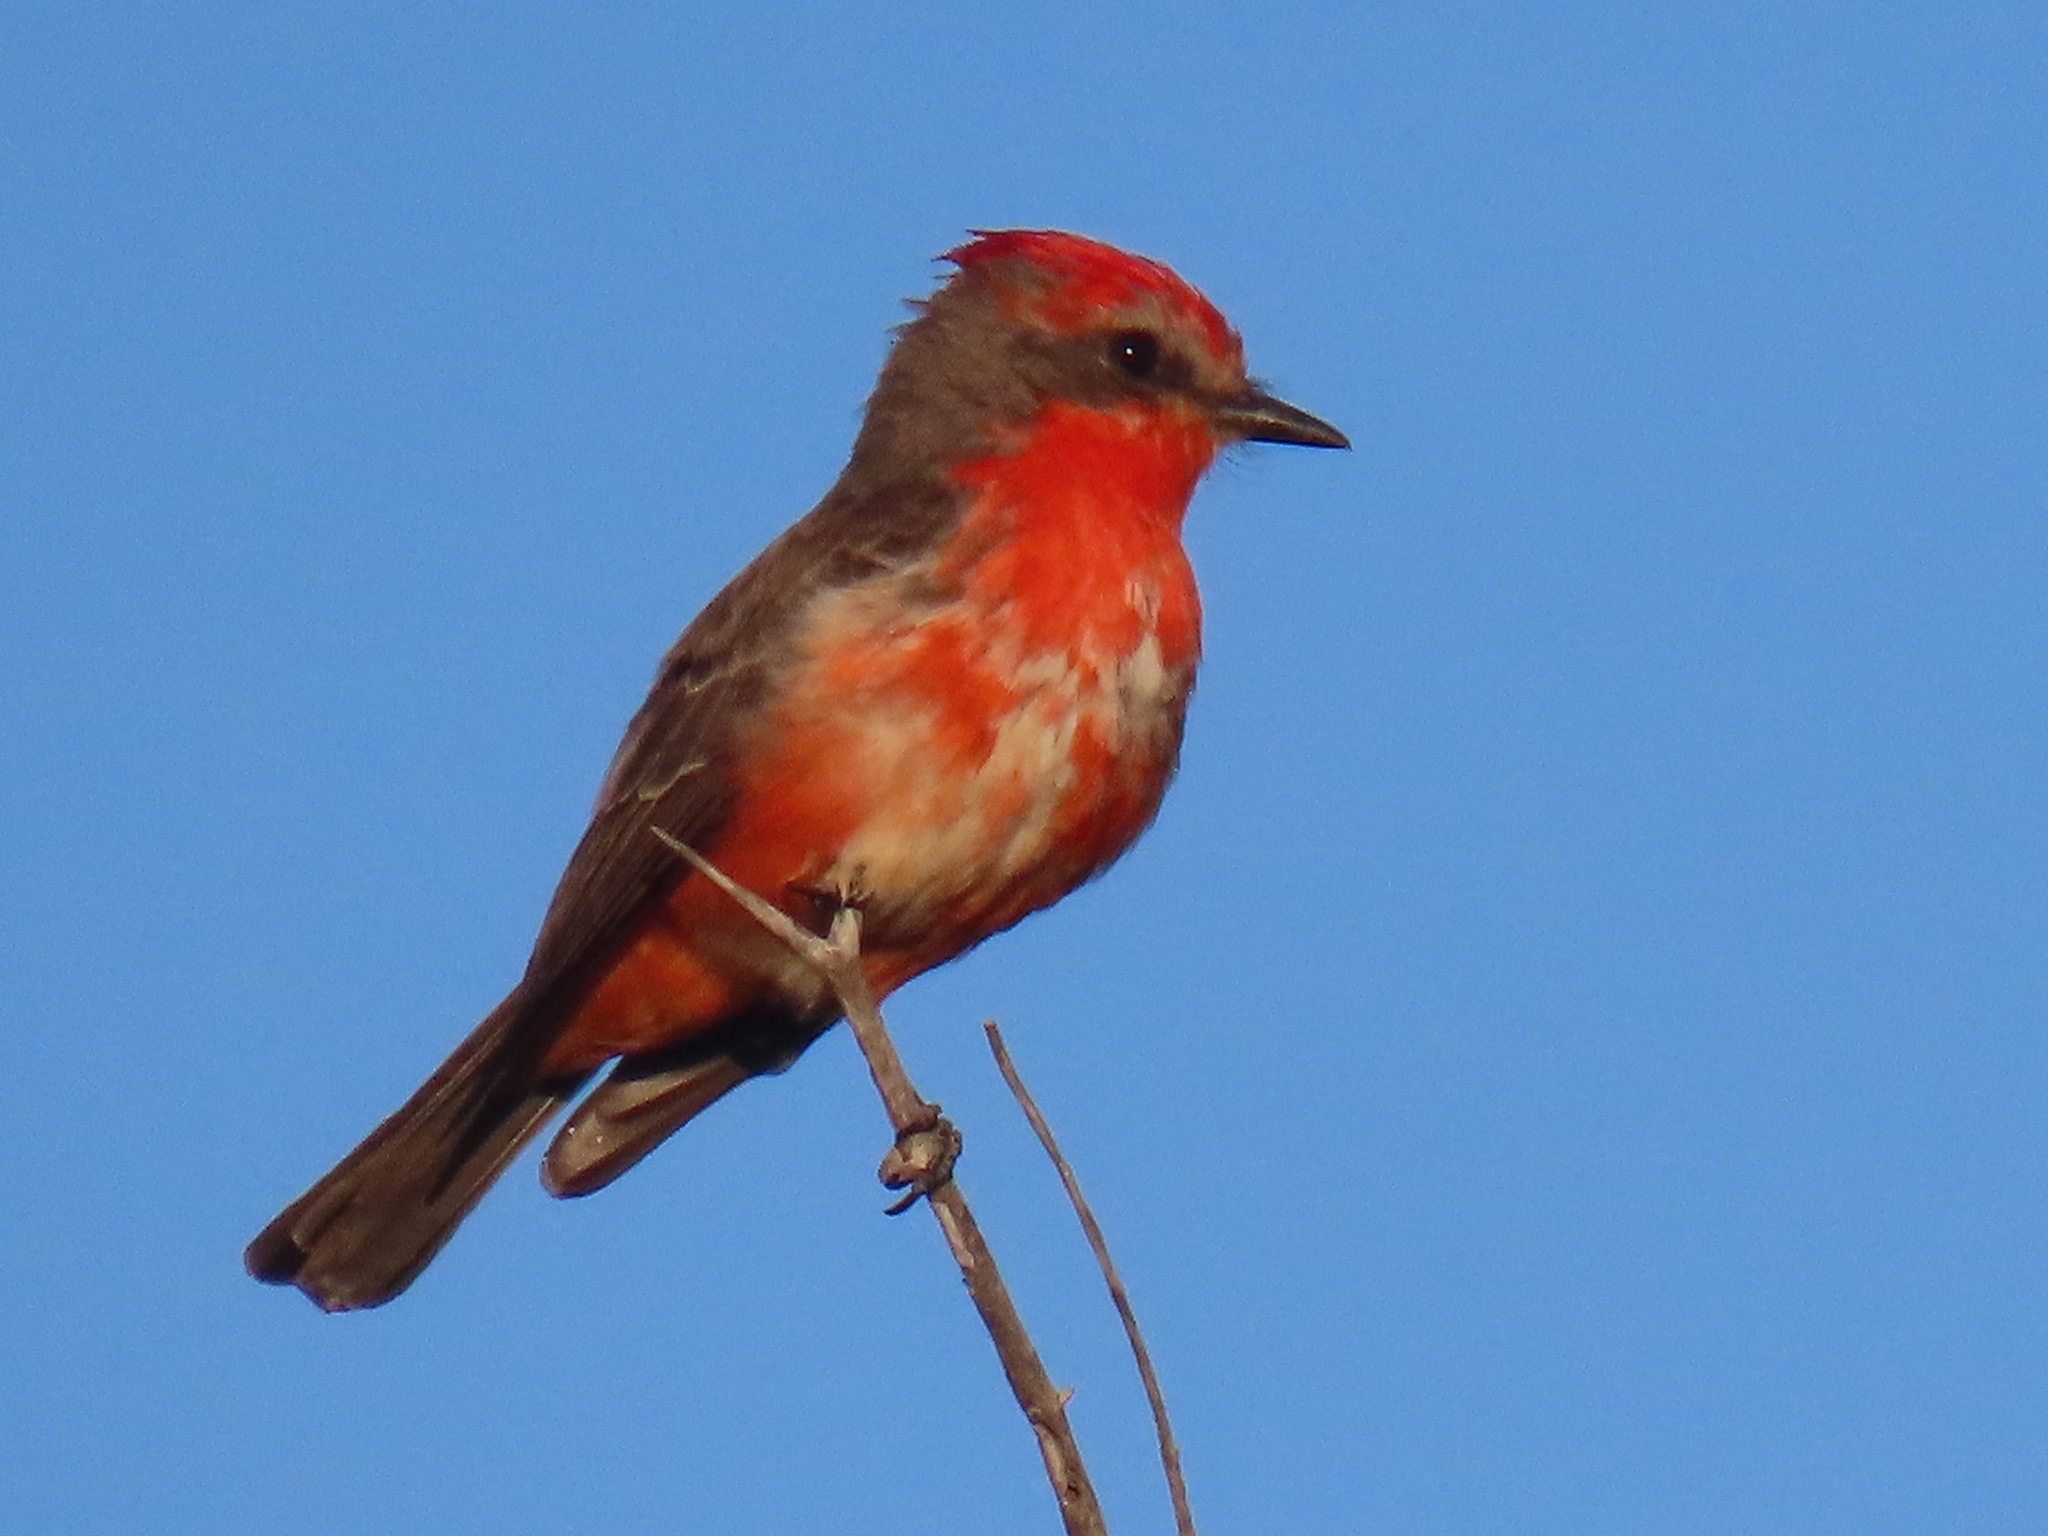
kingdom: Animalia
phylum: Chordata
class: Aves
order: Passeriformes
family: Tyrannidae
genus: Pyrocephalus
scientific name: Pyrocephalus rubinus
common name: Vermilion flycatcher
